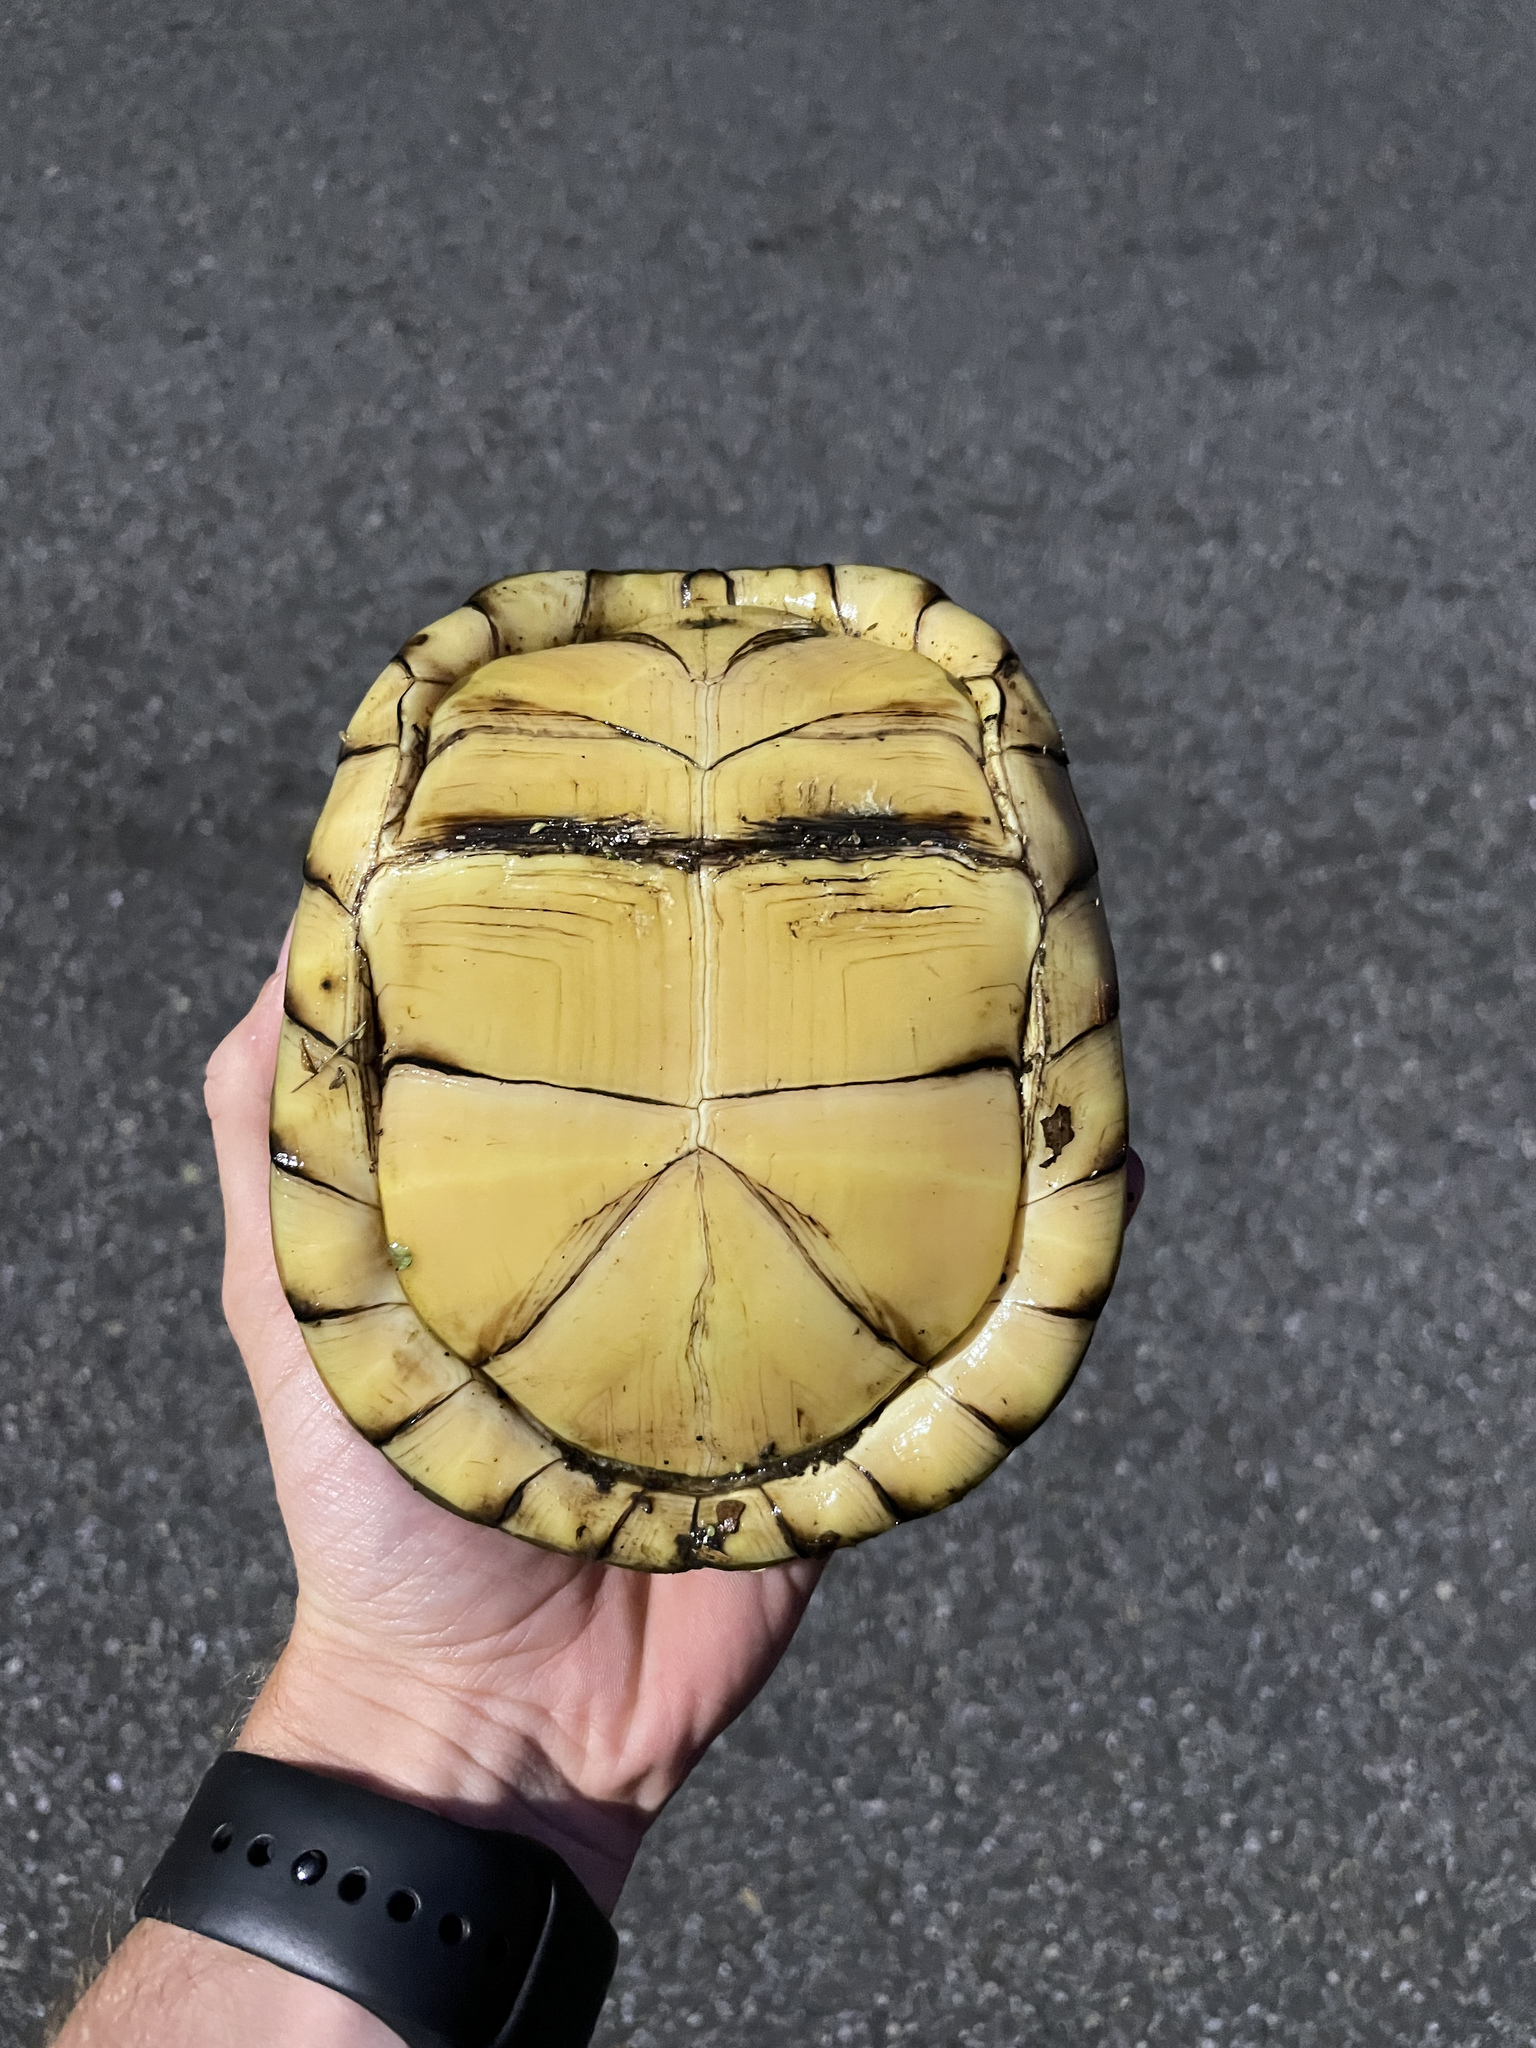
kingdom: Animalia
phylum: Chordata
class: Testudines
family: Emydidae
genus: Terrapene
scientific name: Terrapene carolina
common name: Common box turtle
